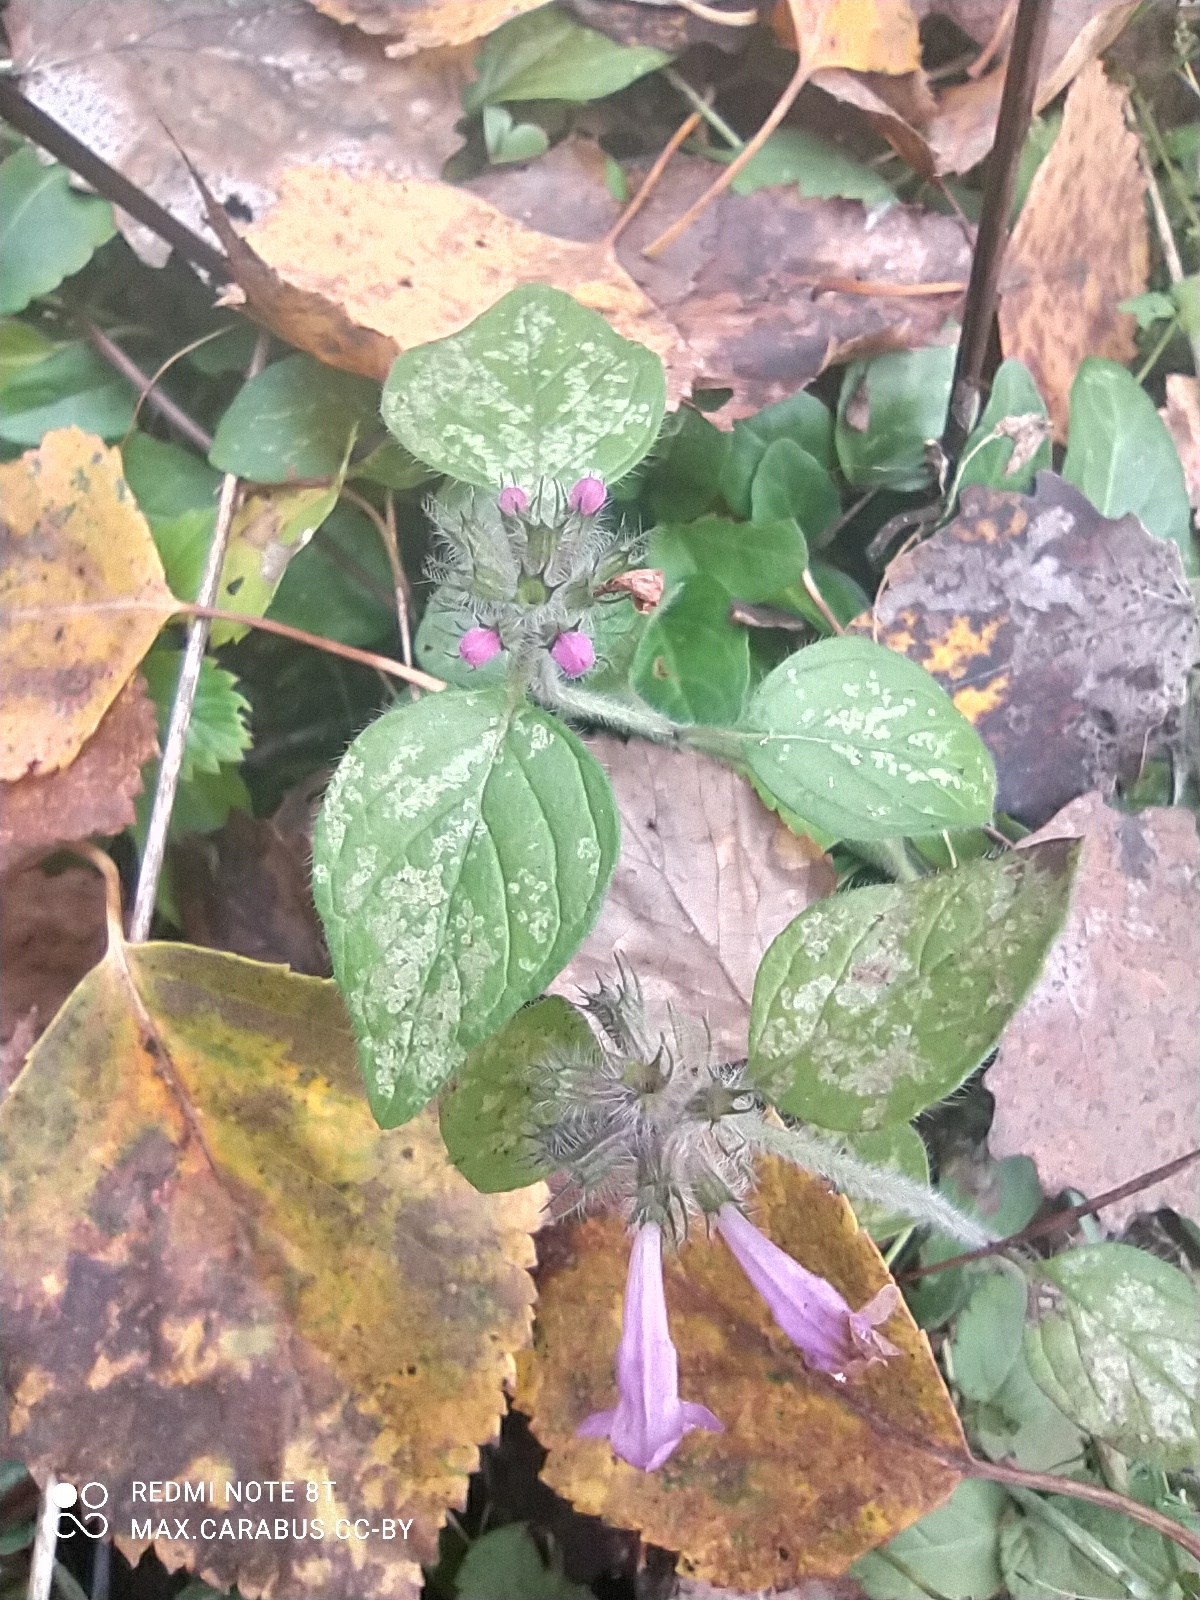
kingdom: Plantae
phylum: Tracheophyta
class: Magnoliopsida
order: Lamiales
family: Lamiaceae
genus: Clinopodium
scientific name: Clinopodium vulgare
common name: Wild basil
